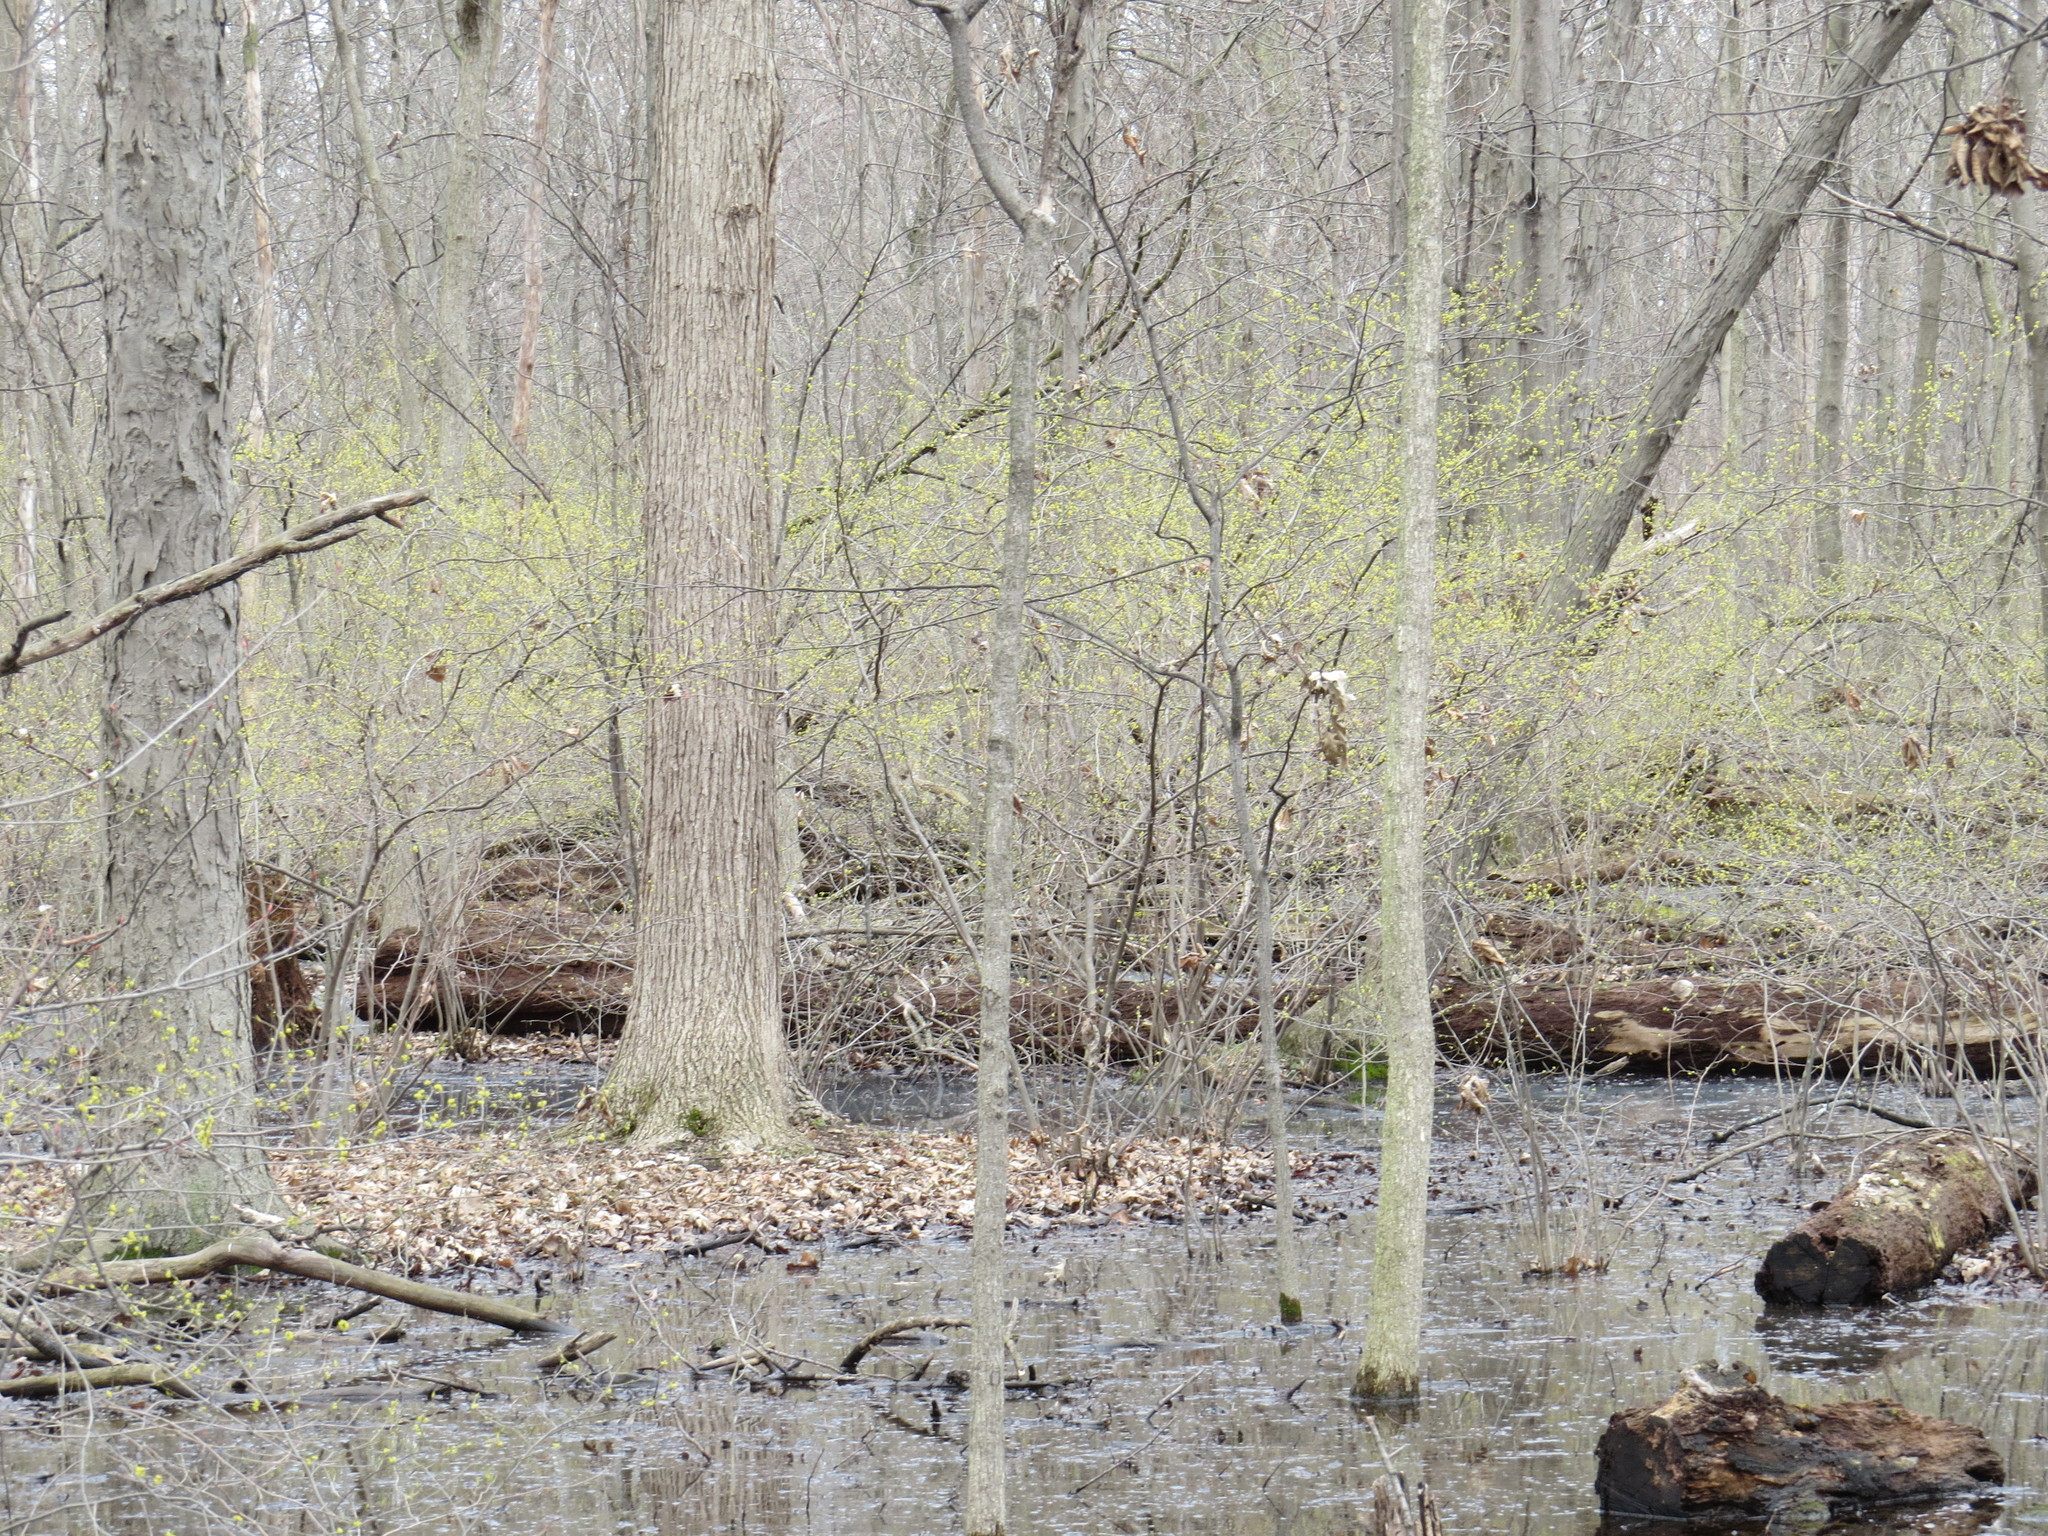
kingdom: Plantae
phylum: Tracheophyta
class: Magnoliopsida
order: Laurales
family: Lauraceae
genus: Lindera
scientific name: Lindera benzoin
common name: Spicebush
